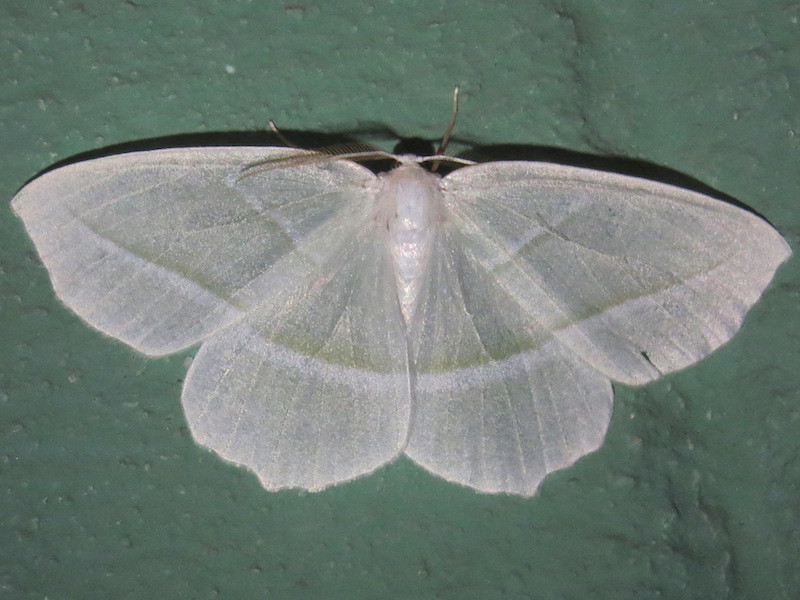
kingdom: Animalia
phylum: Arthropoda
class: Insecta
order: Lepidoptera
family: Geometridae
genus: Campaea
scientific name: Campaea perlata
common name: Fringed looper
